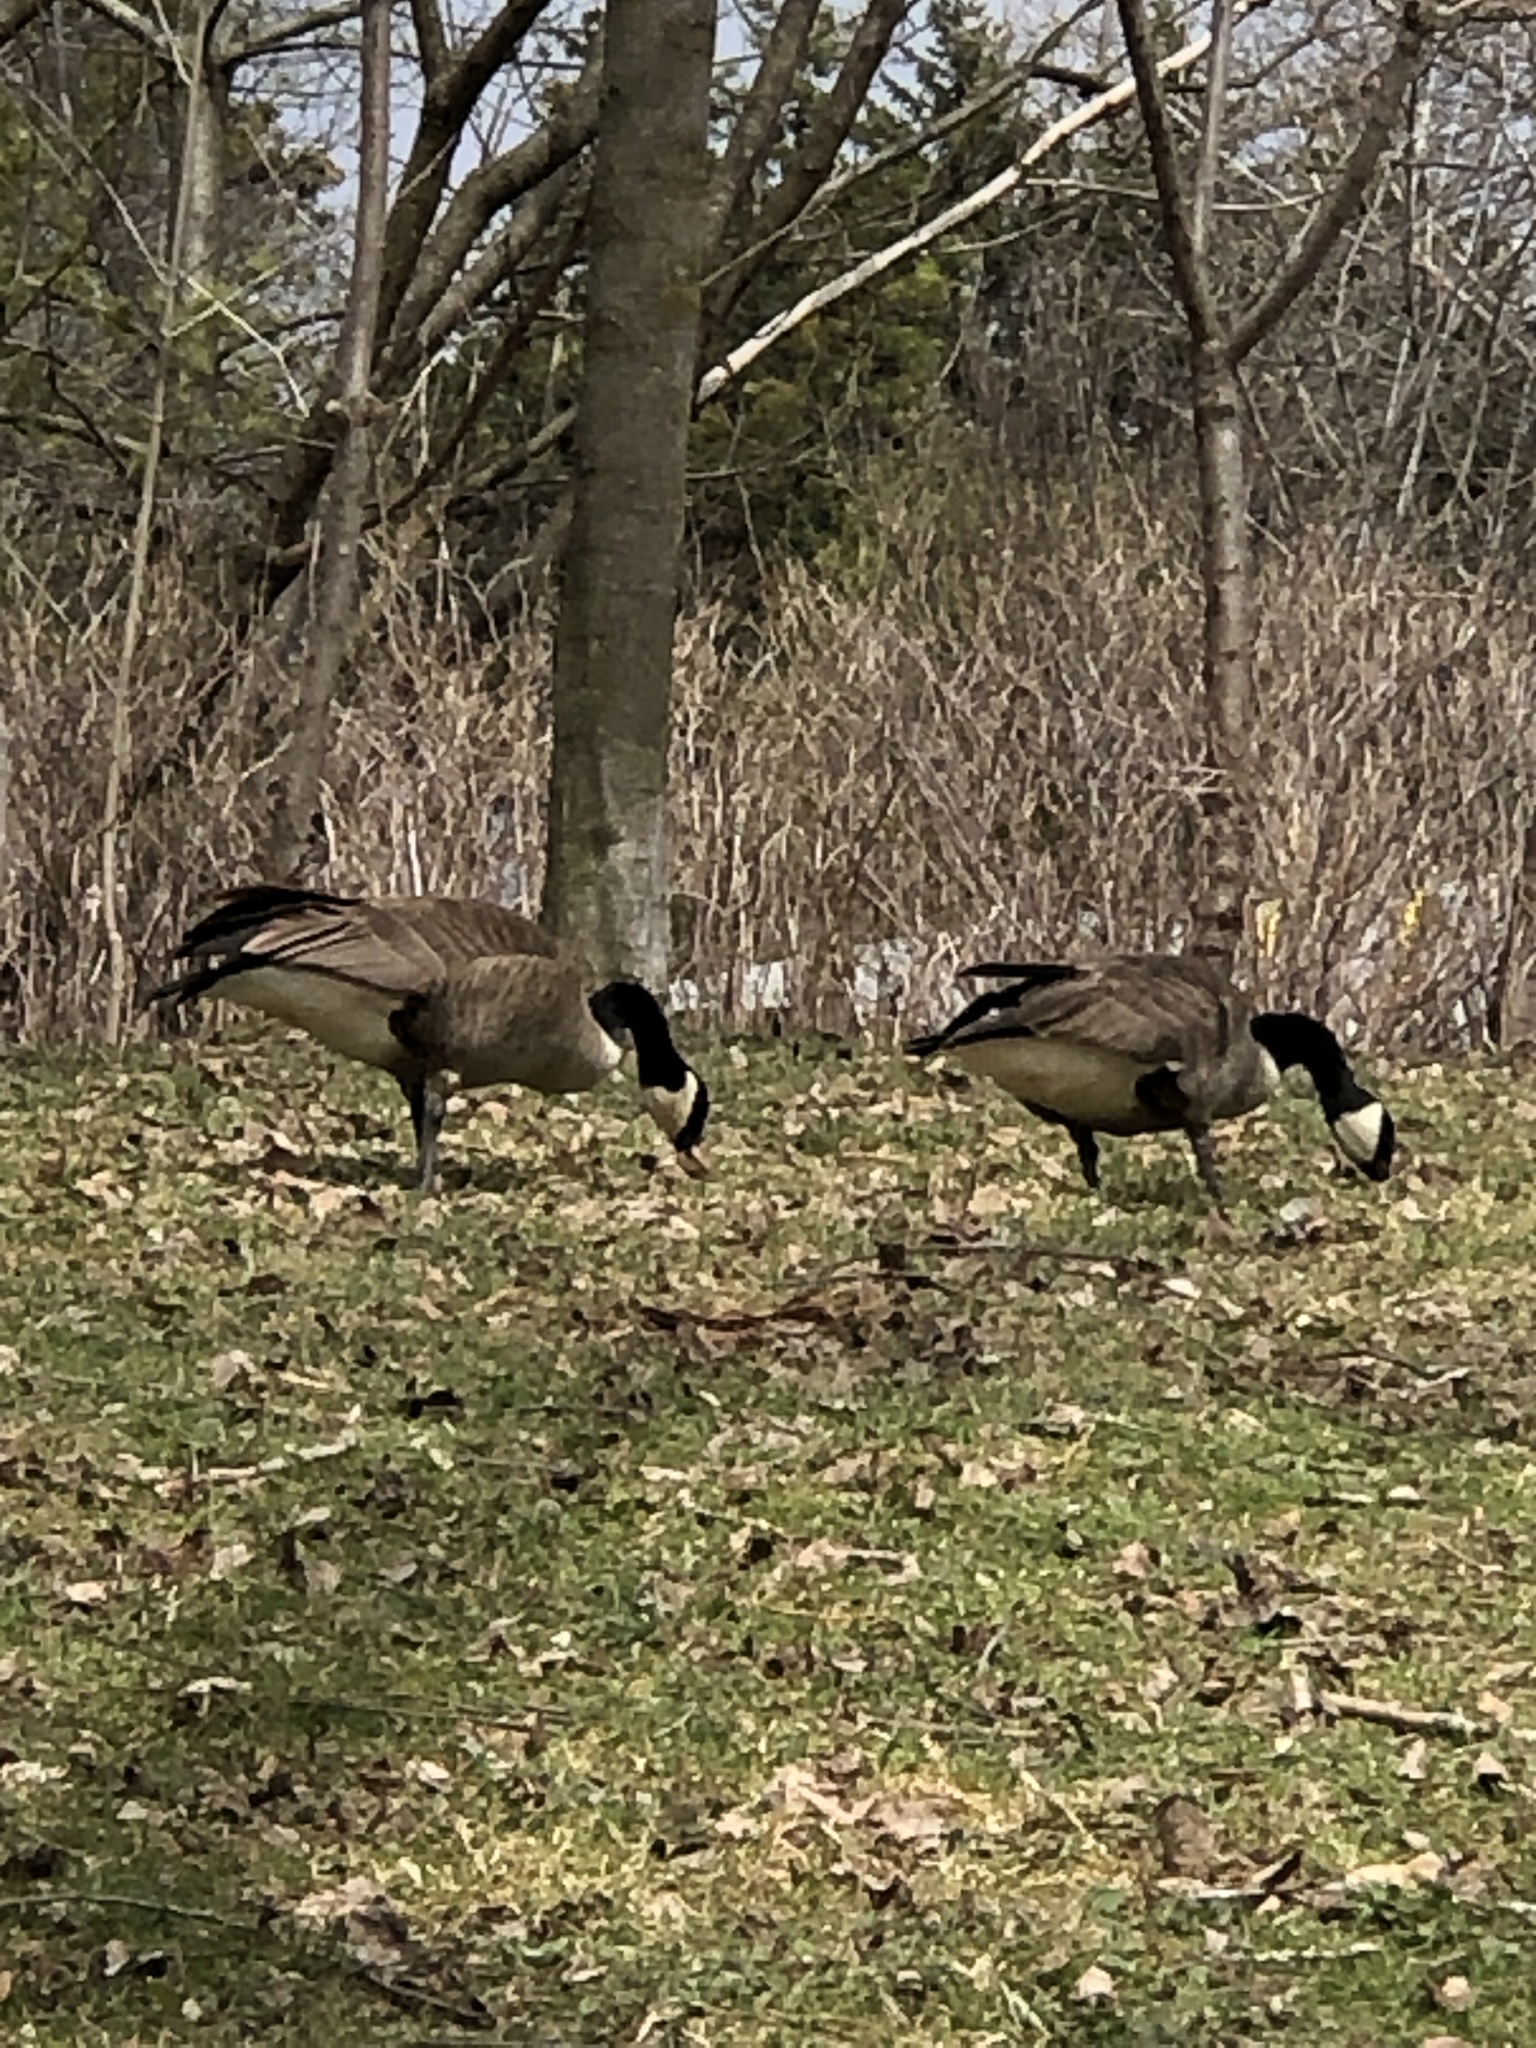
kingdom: Animalia
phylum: Chordata
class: Aves
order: Anseriformes
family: Anatidae
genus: Branta
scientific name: Branta canadensis
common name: Canada goose
